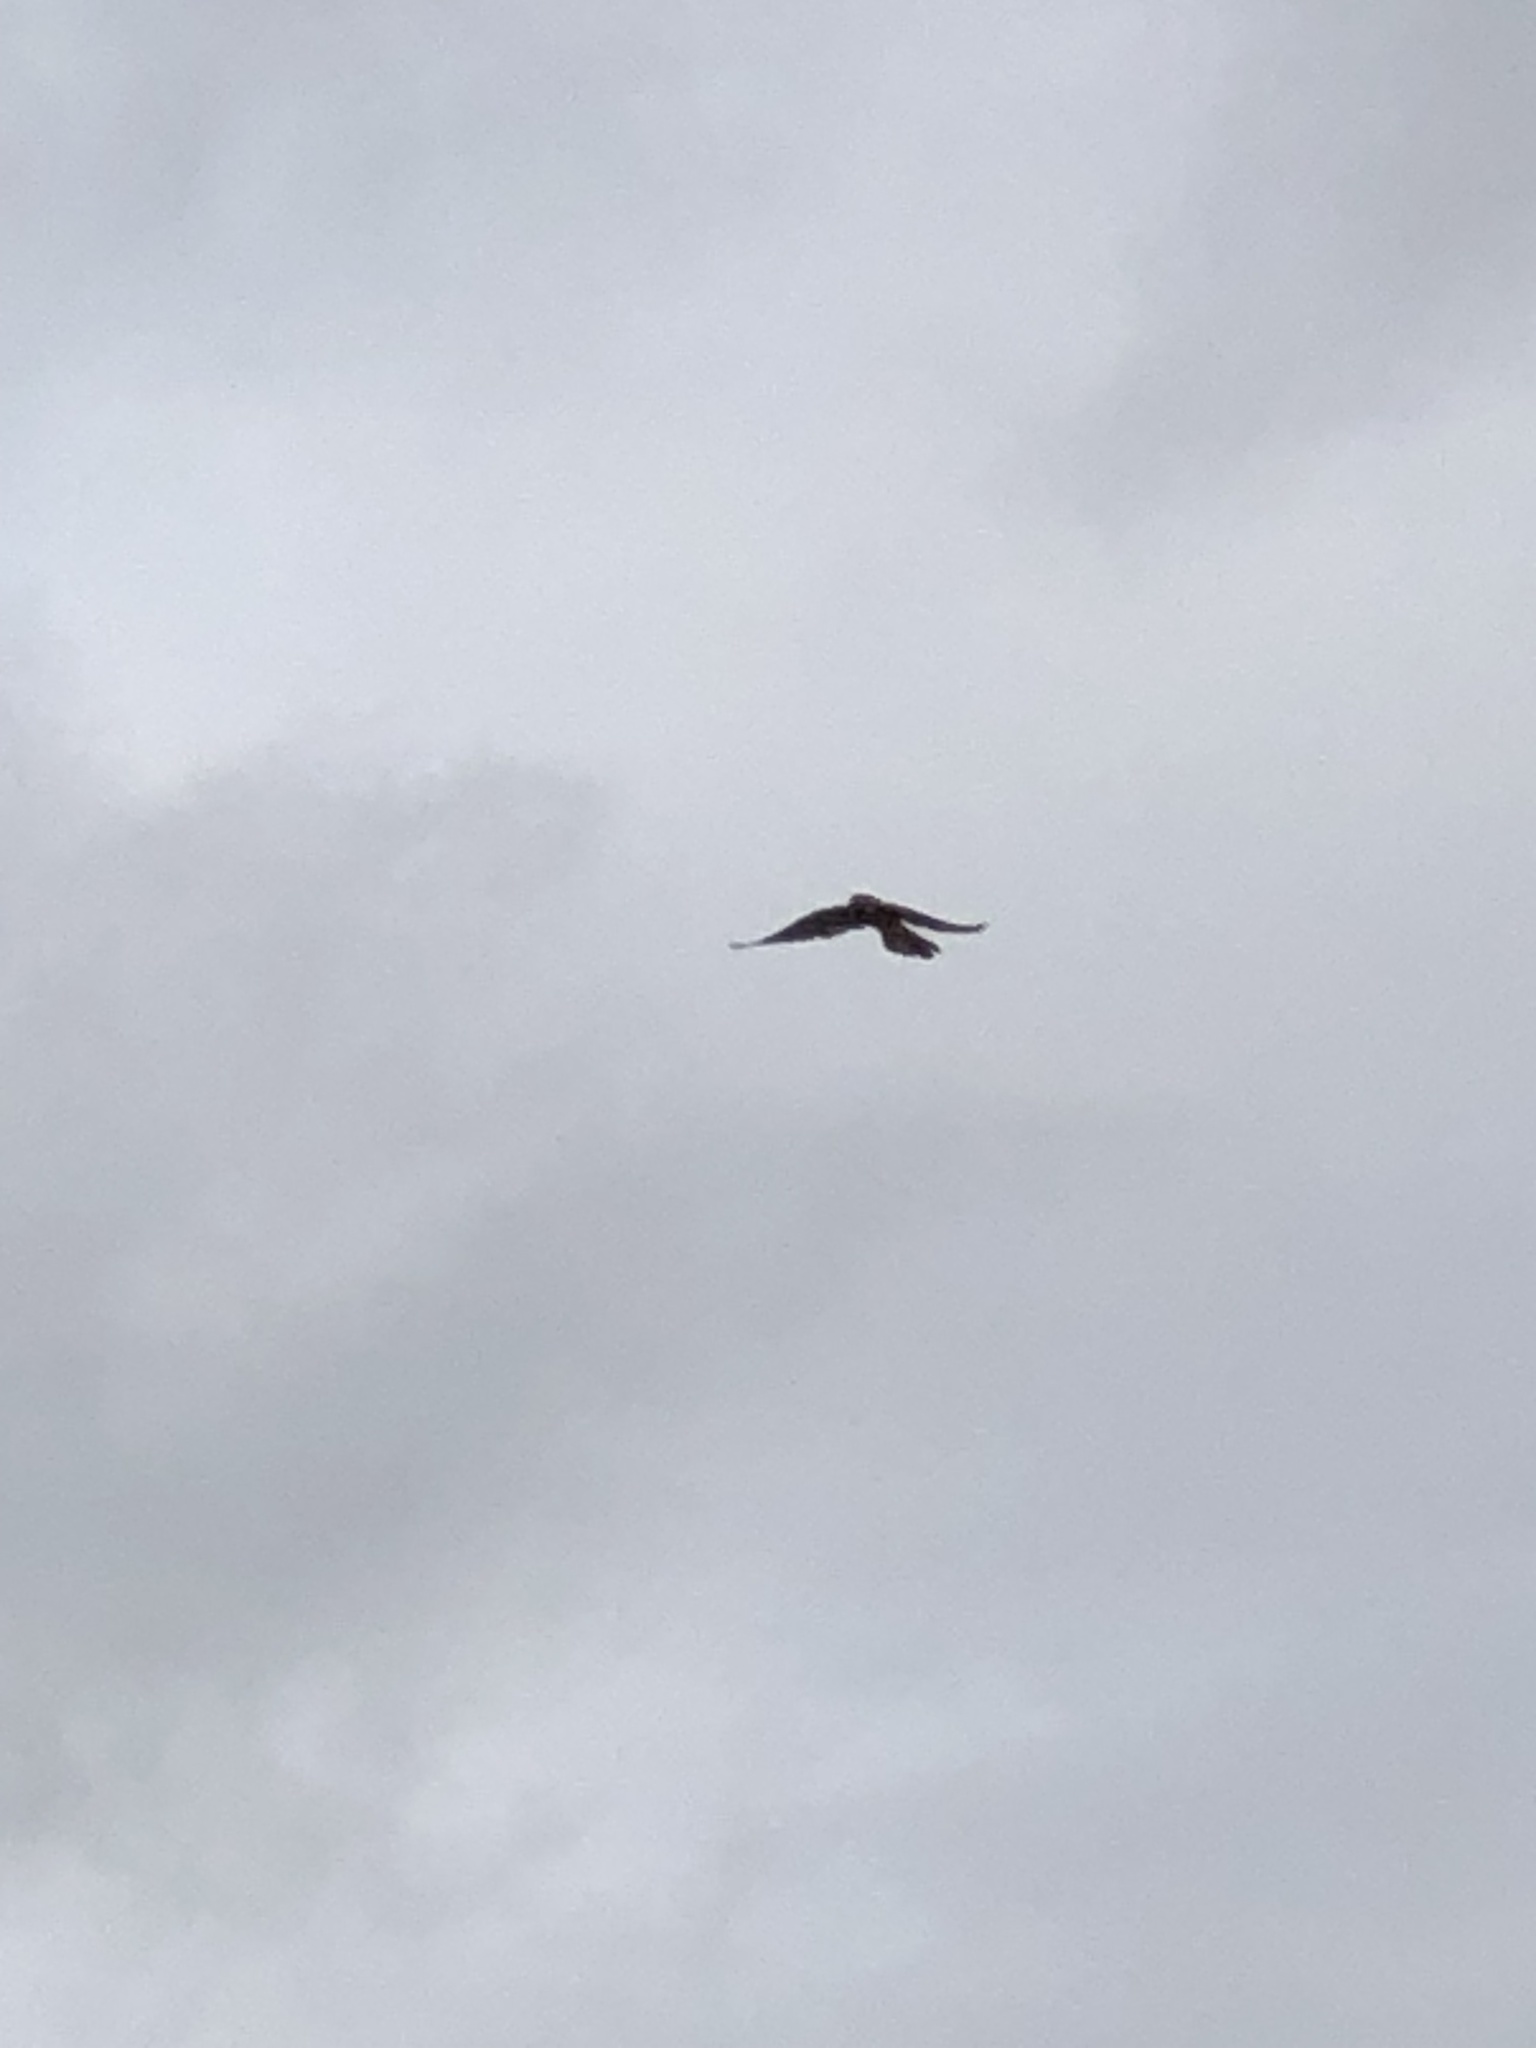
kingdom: Animalia
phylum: Chordata
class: Aves
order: Falconiformes
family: Falconidae
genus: Falco
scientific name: Falco tinnunculus
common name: Common kestrel
